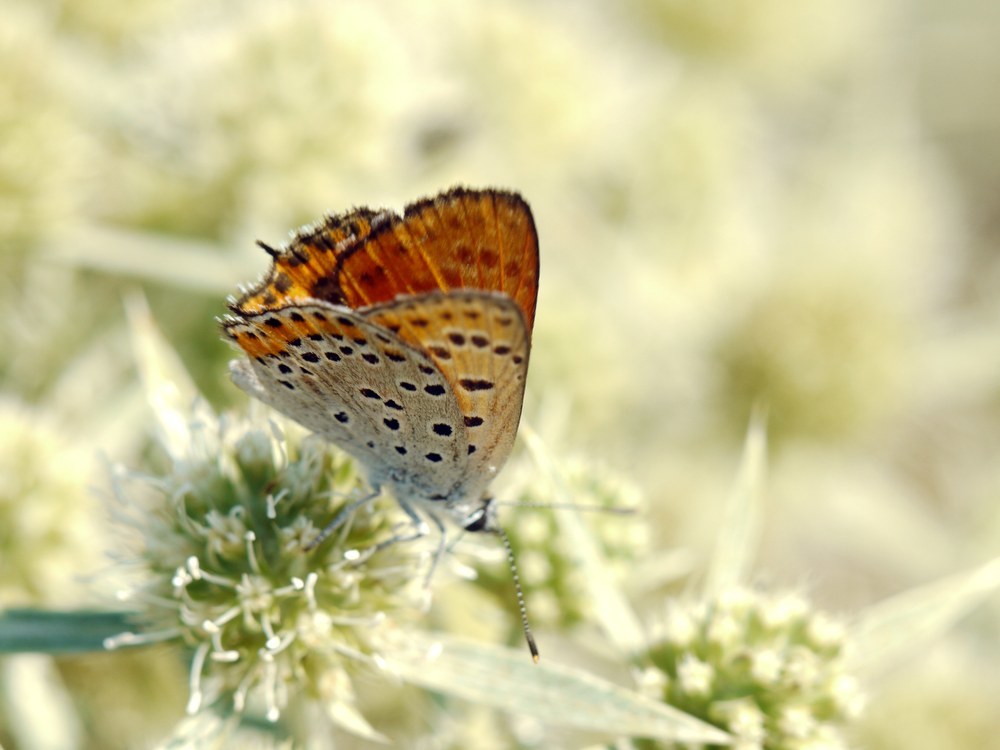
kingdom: Animalia
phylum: Arthropoda
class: Insecta
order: Lepidoptera
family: Lycaenidae
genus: Thersamonia
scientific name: Thersamonia thersamon
